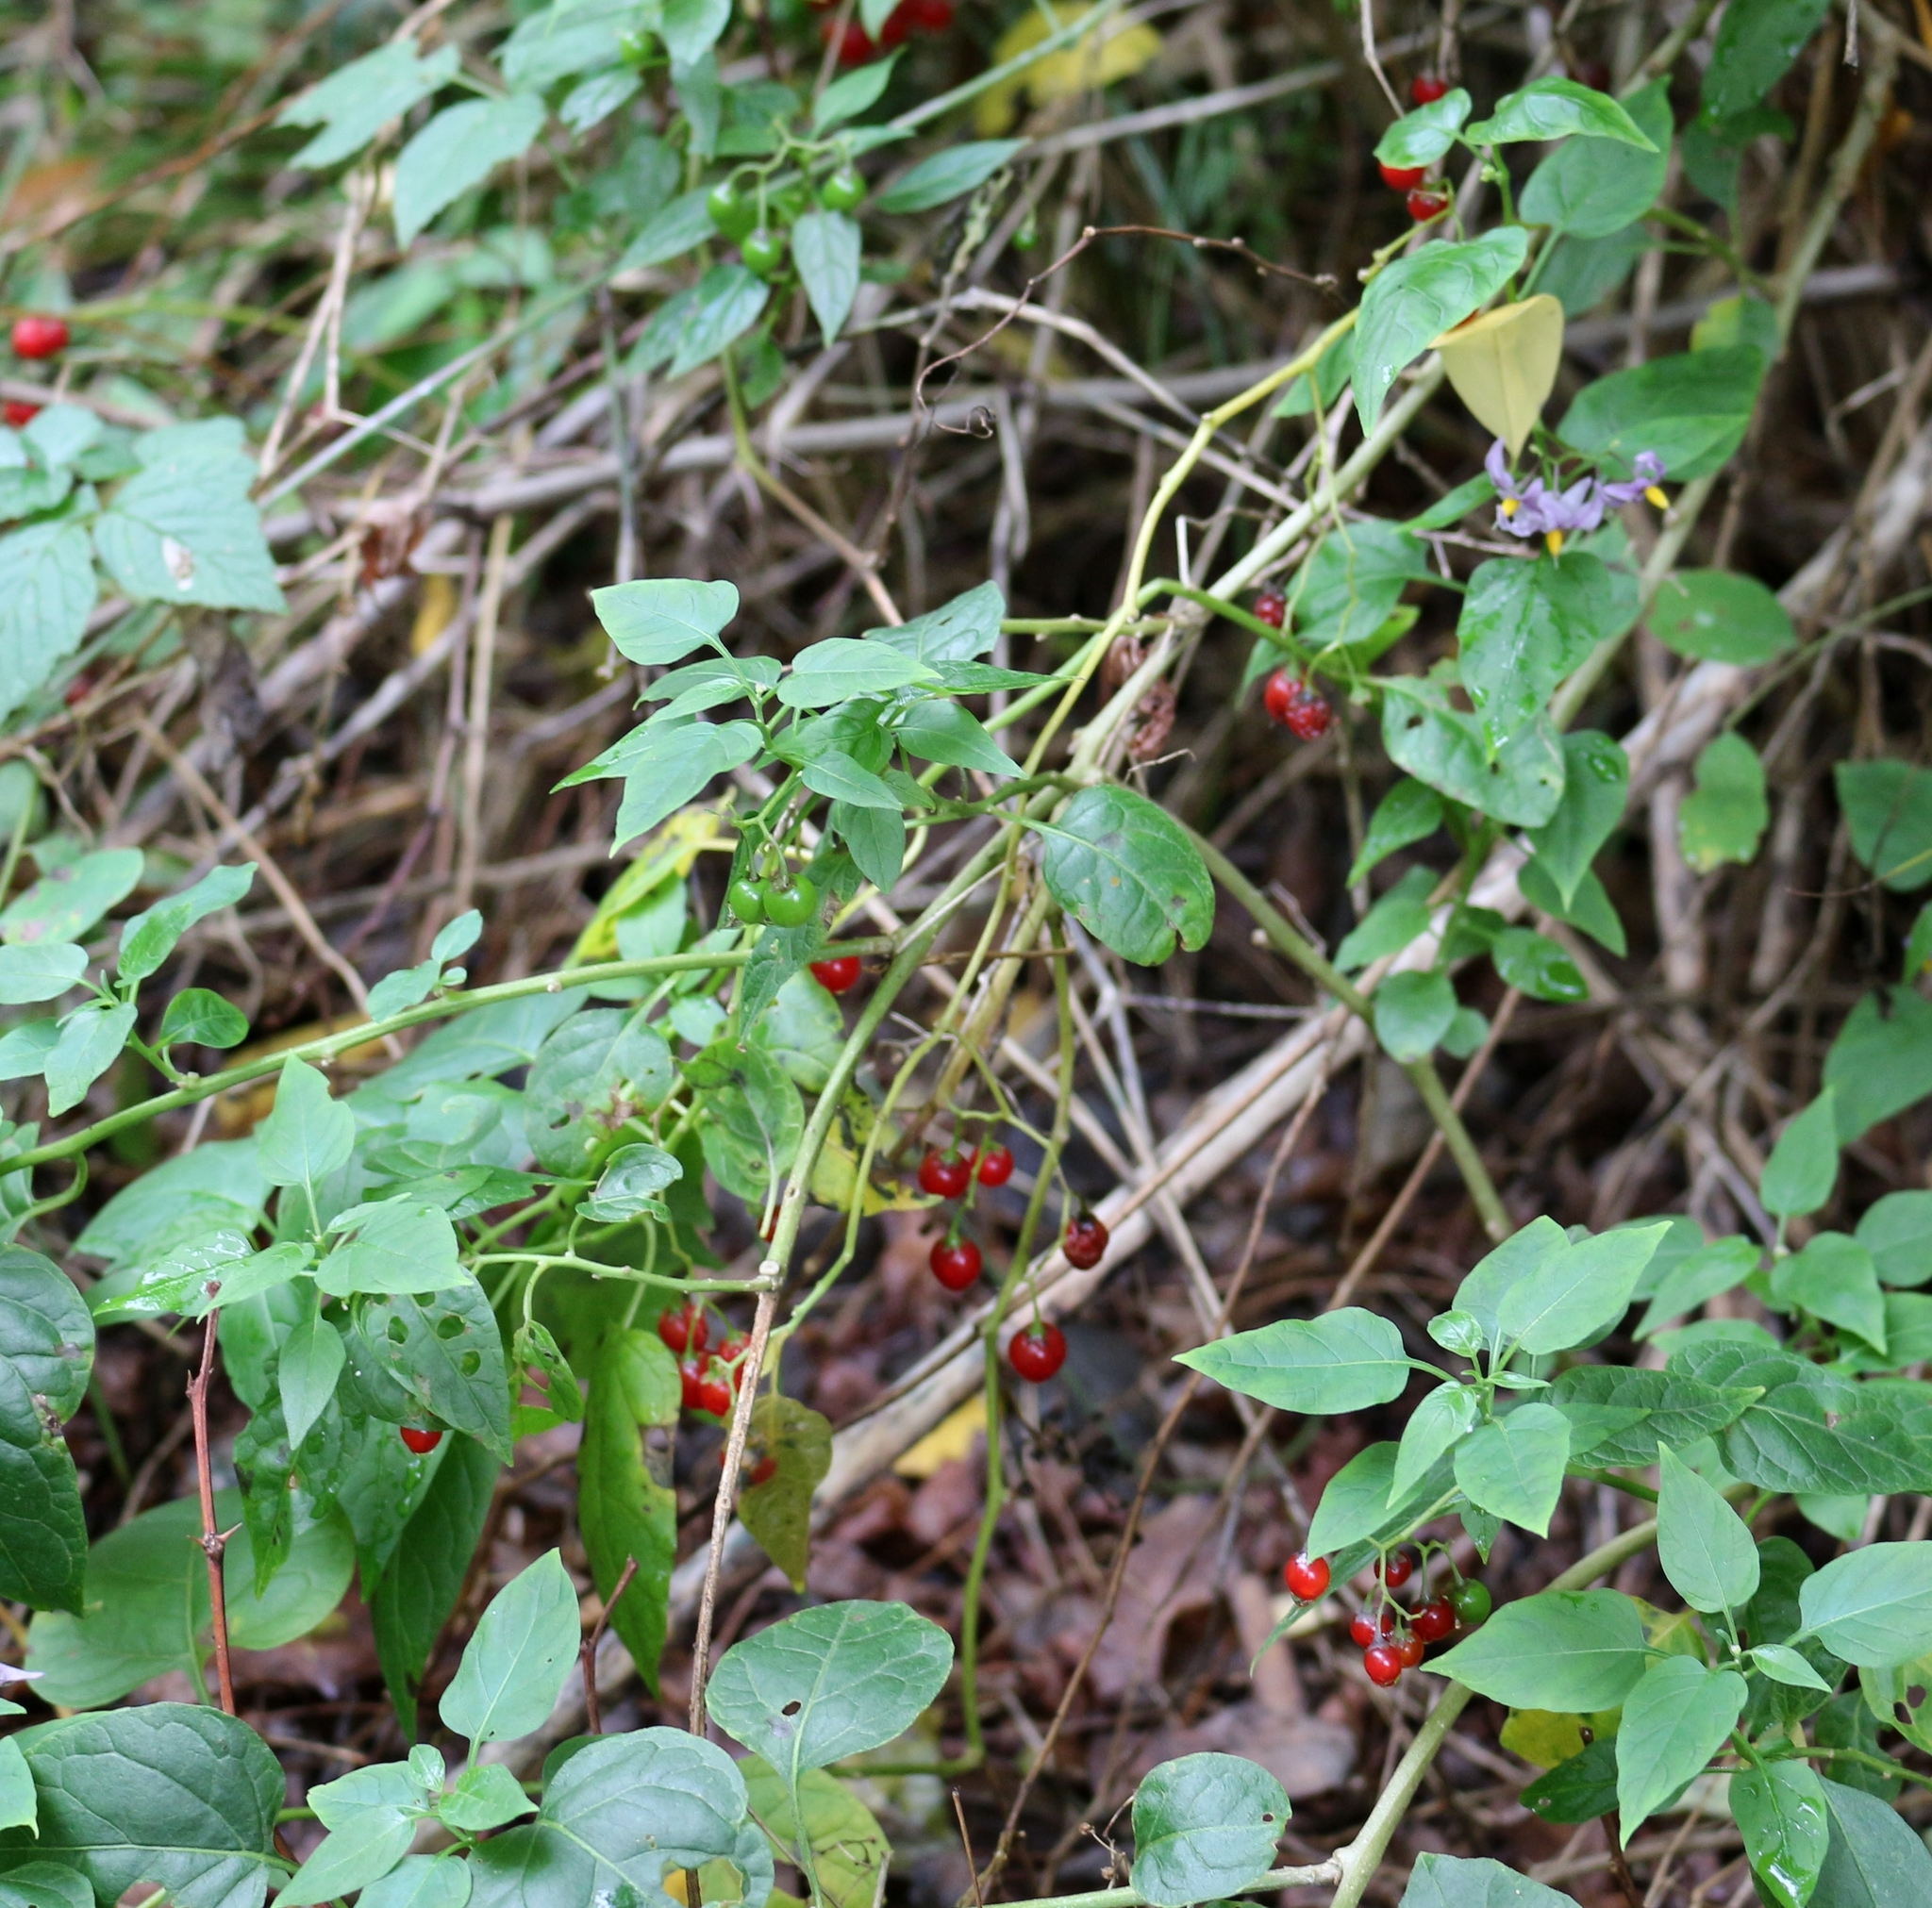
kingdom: Plantae
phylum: Tracheophyta
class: Magnoliopsida
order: Solanales
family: Solanaceae
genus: Solanum
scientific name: Solanum dulcamara
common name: Climbing nightshade
